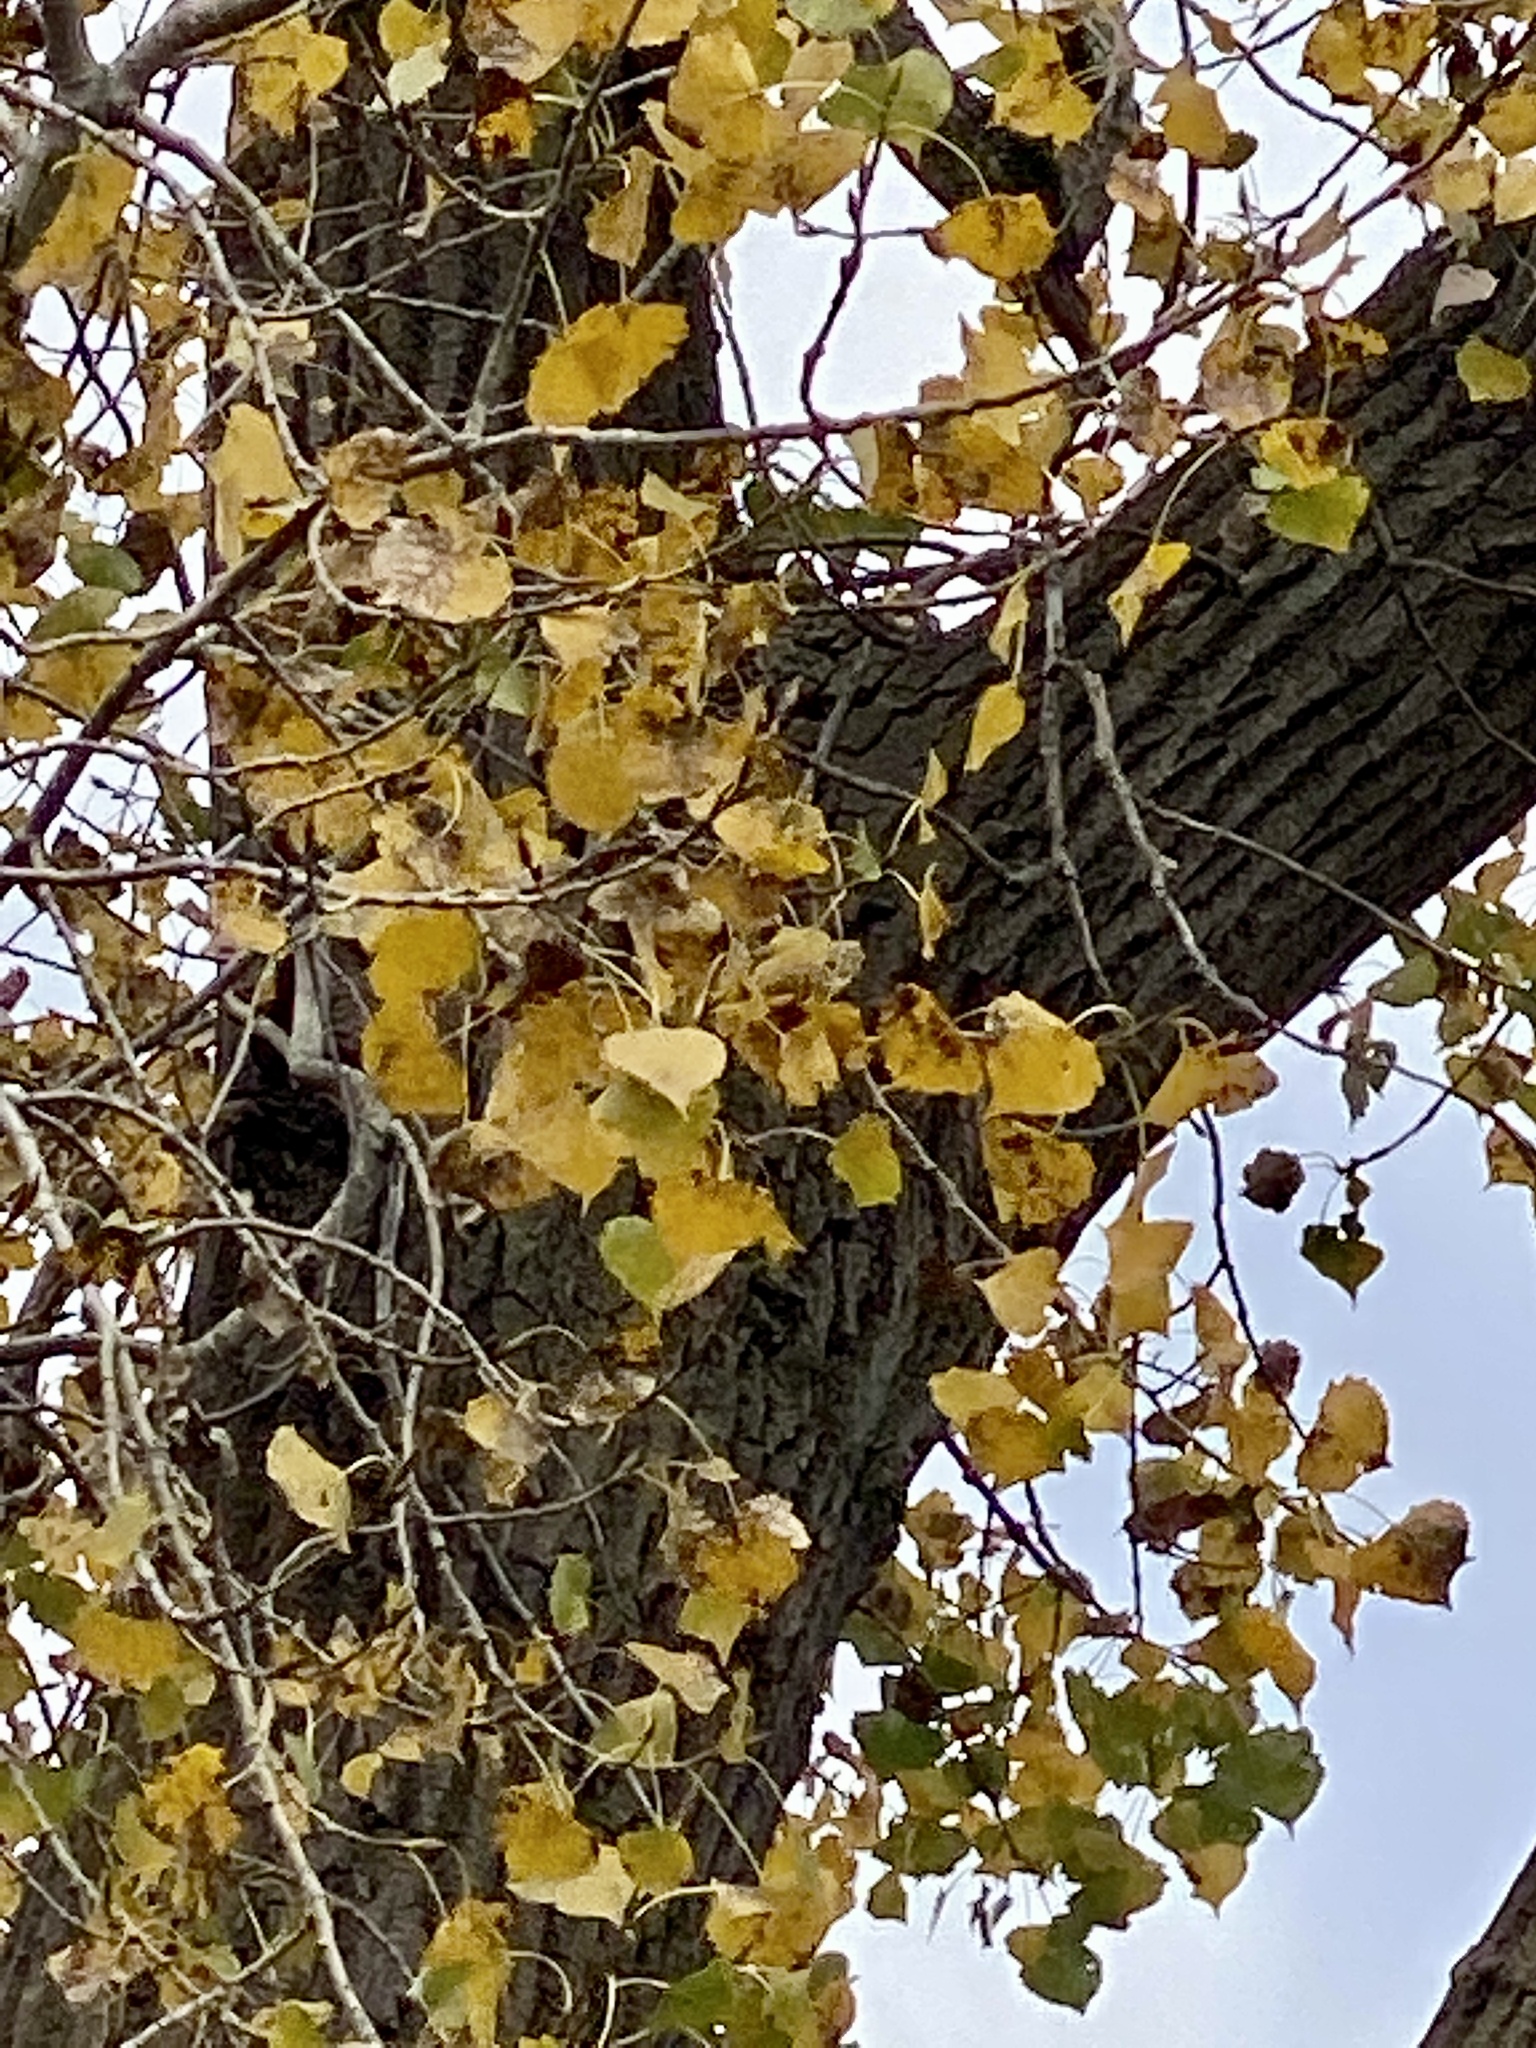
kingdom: Plantae
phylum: Tracheophyta
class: Magnoliopsida
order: Malpighiales
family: Salicaceae
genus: Populus
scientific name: Populus deltoides
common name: Eastern cottonwood
